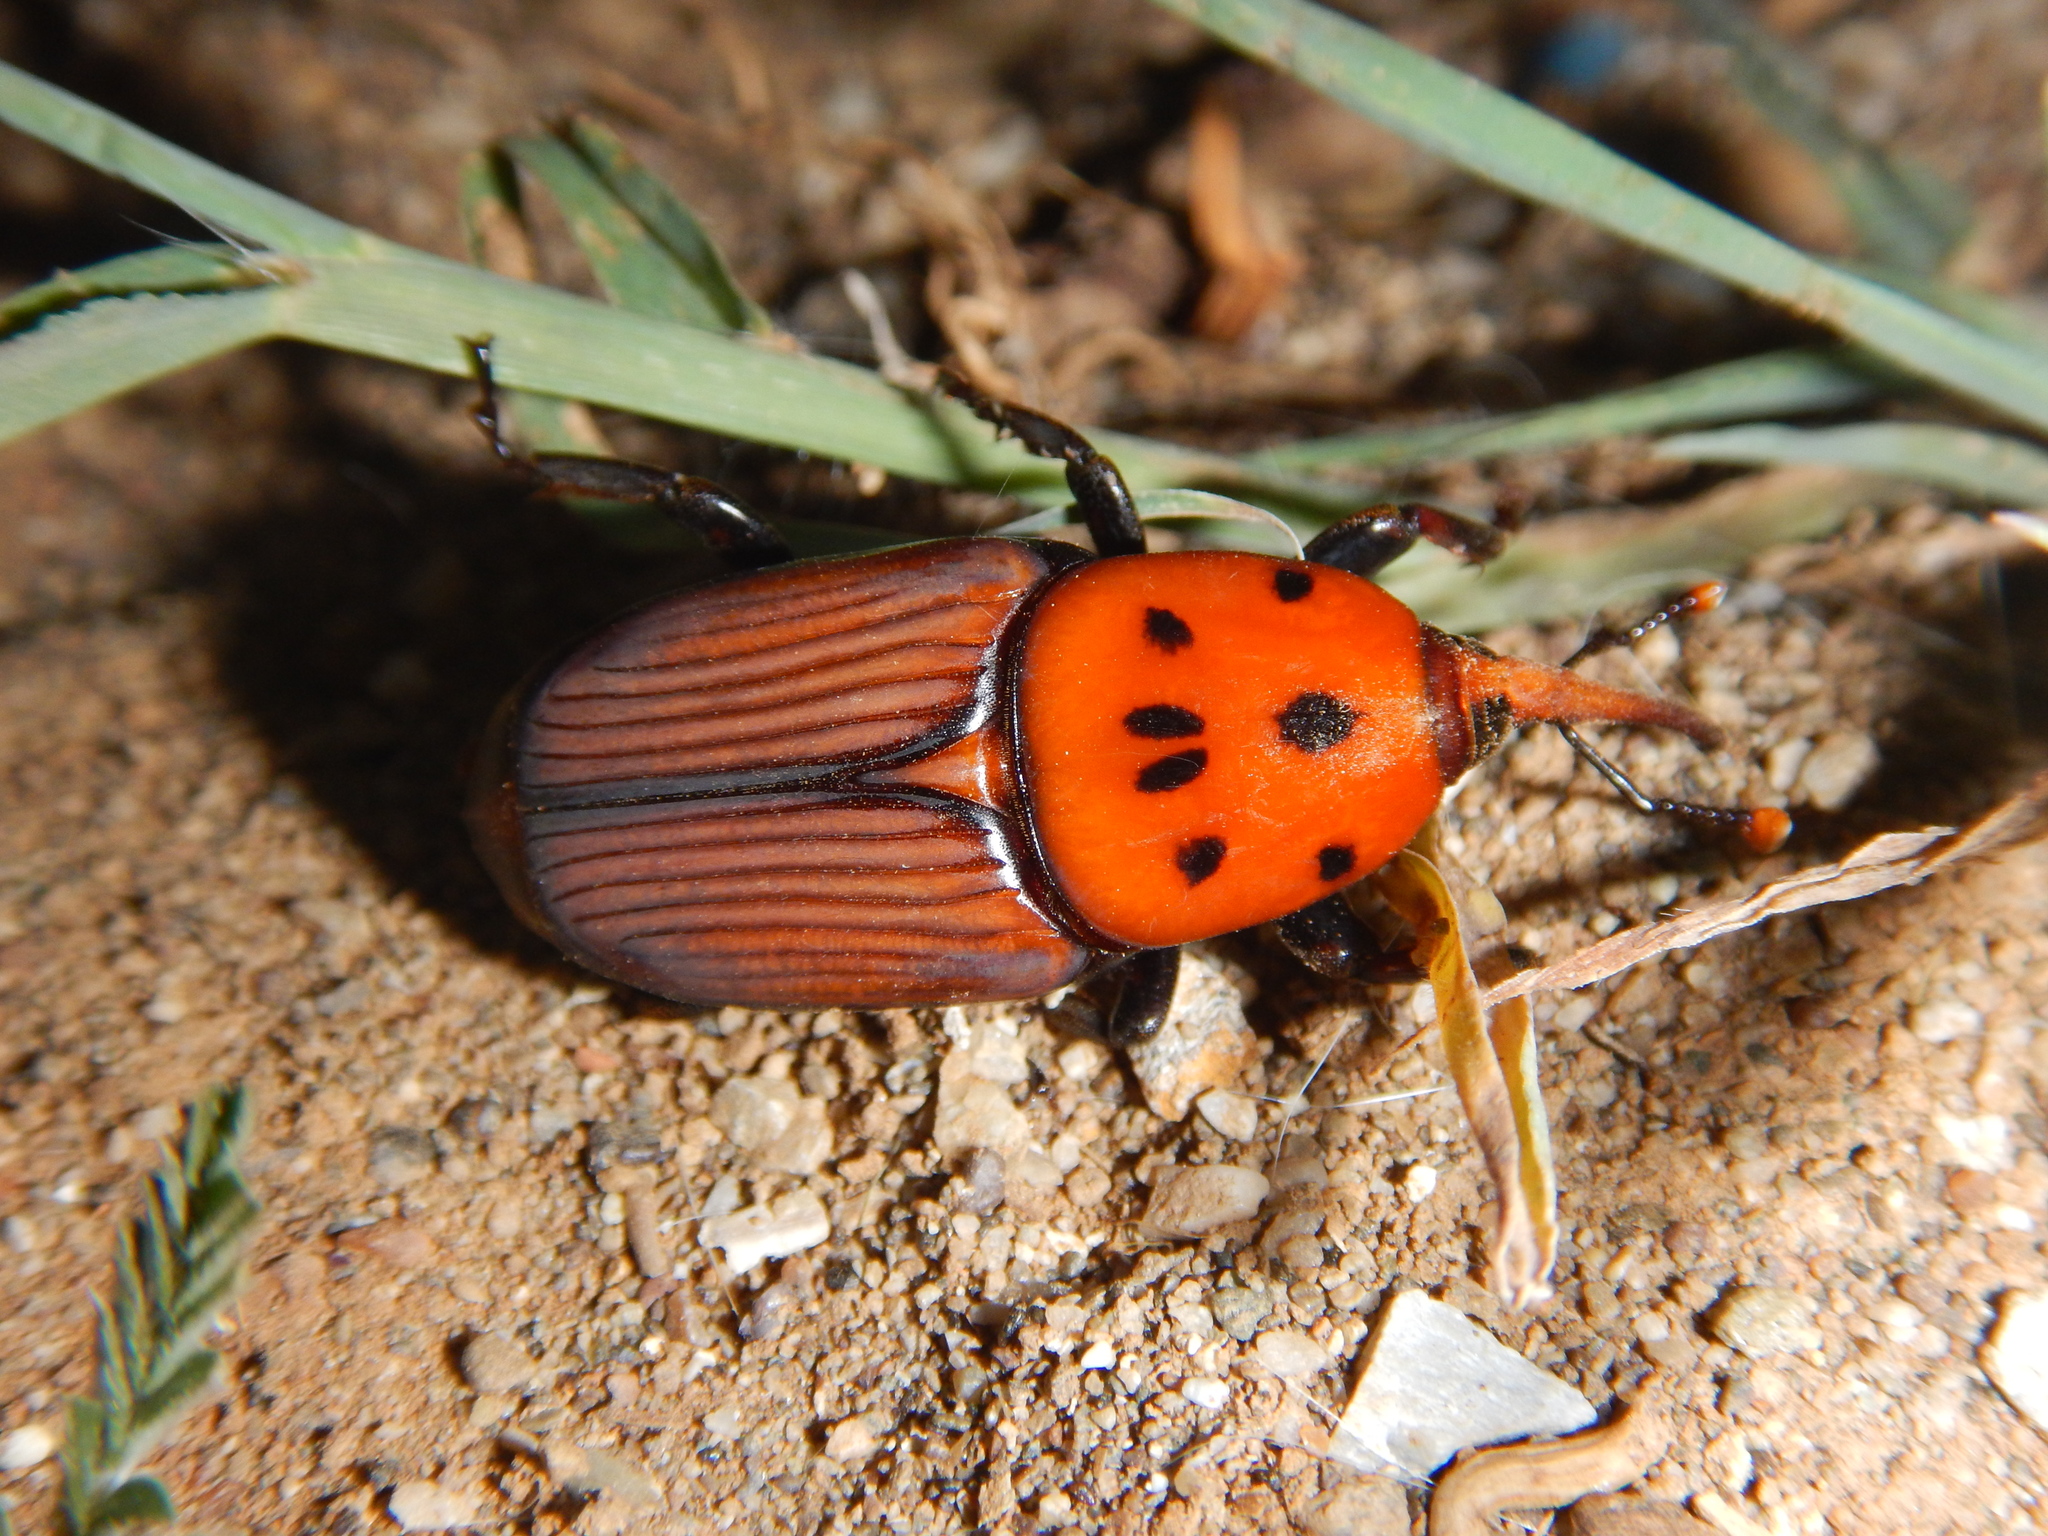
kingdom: Animalia
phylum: Arthropoda
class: Insecta
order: Coleoptera
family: Dryophthoridae
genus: Rhynchophorus
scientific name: Rhynchophorus ferrugineus
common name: Red palm weevil
